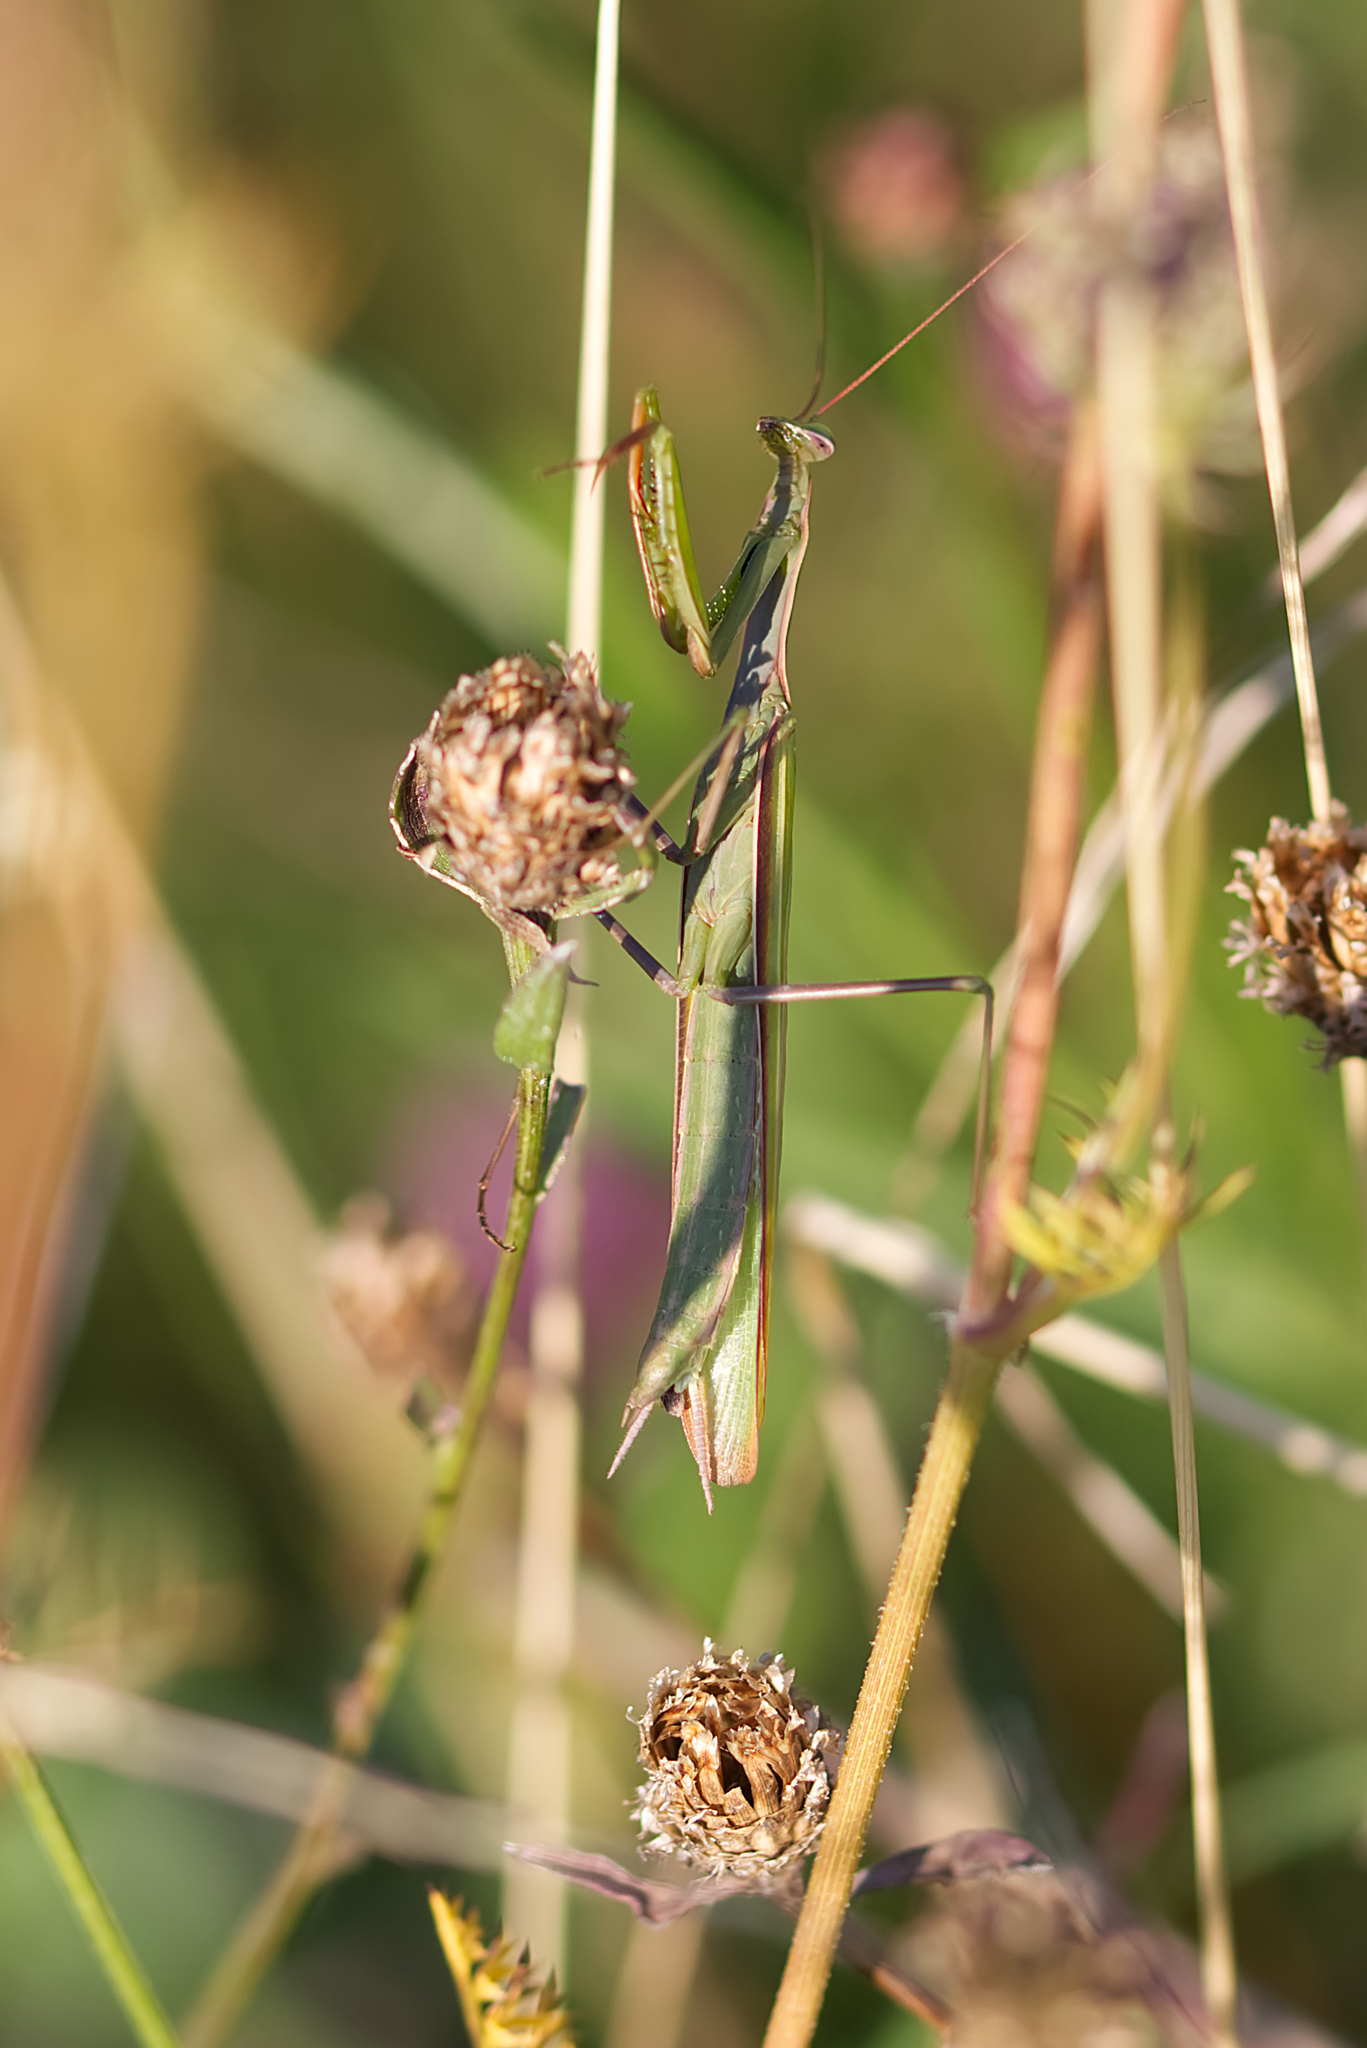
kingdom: Animalia
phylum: Arthropoda
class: Insecta
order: Mantodea
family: Mantidae
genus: Mantis
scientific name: Mantis religiosa
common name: Praying mantis
